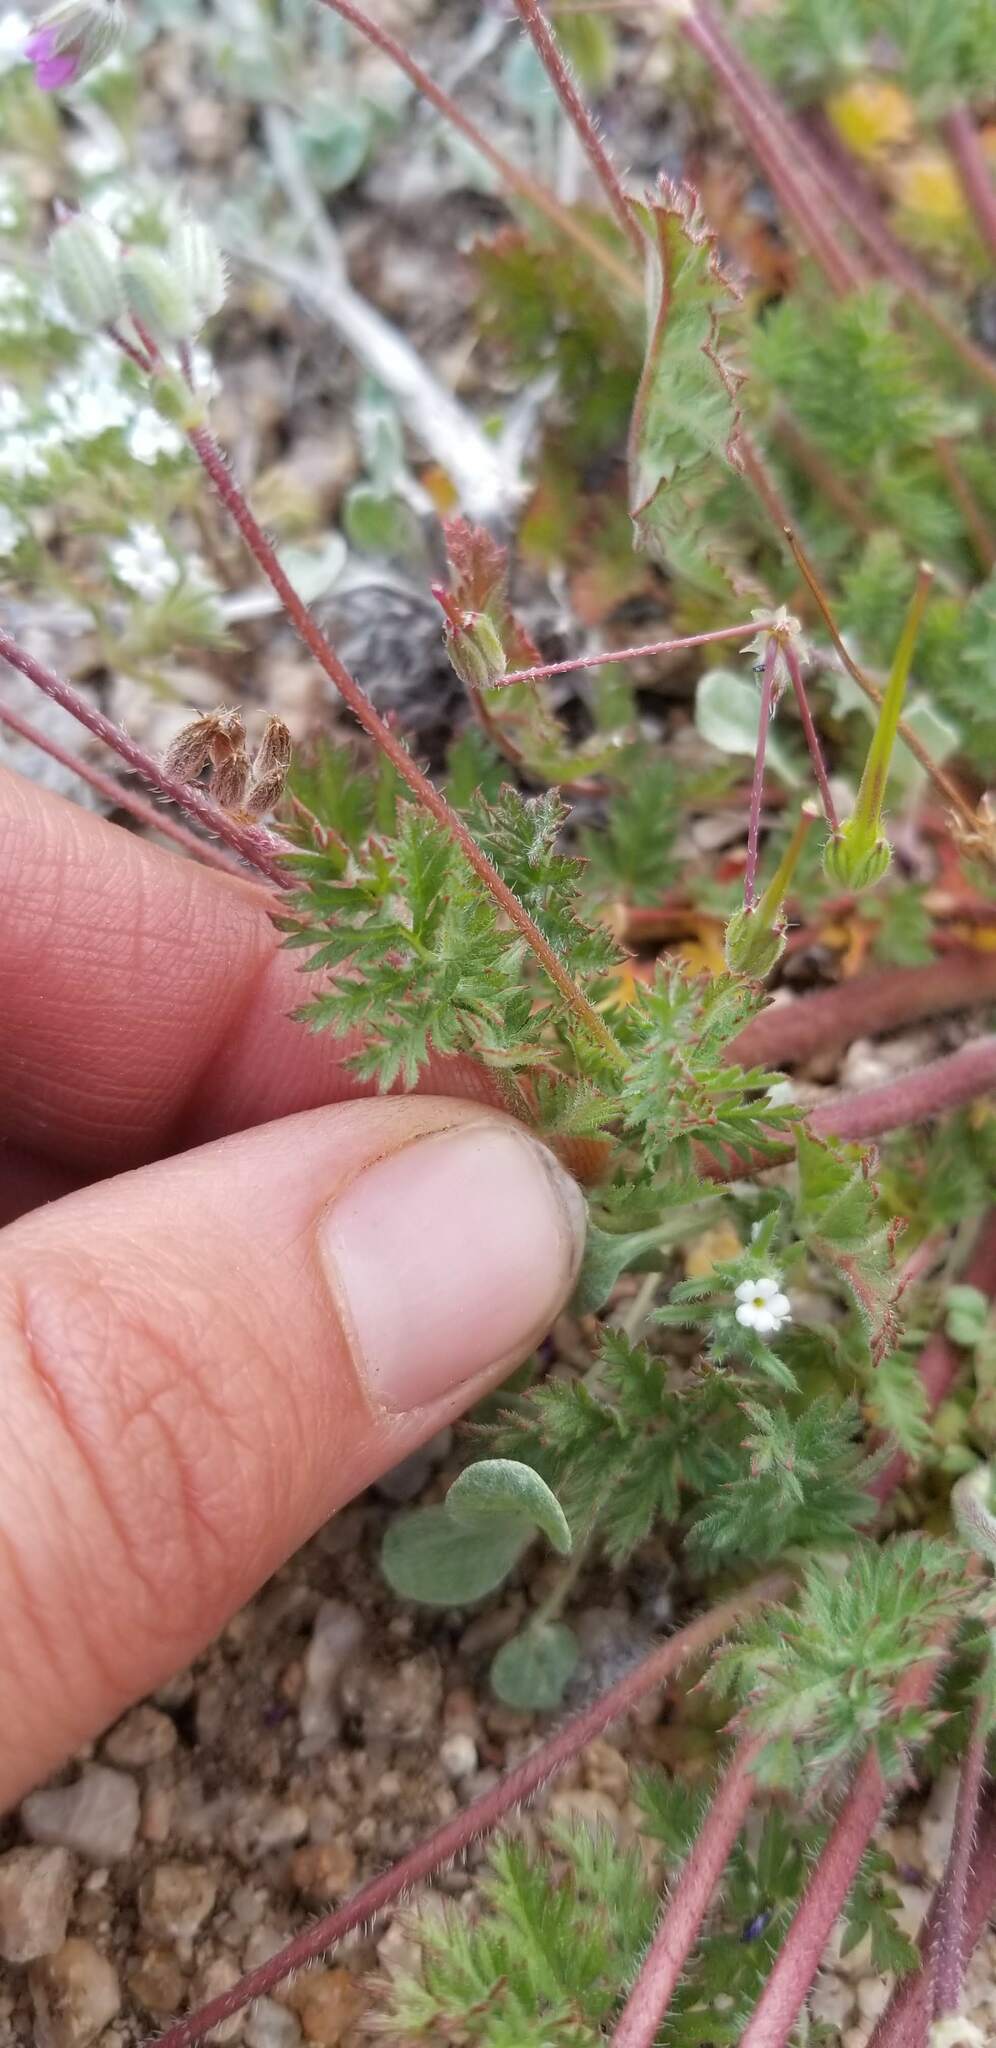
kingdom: Plantae
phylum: Tracheophyta
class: Magnoliopsida
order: Geraniales
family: Geraniaceae
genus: Erodium
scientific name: Erodium cicutarium
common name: Common stork's-bill
